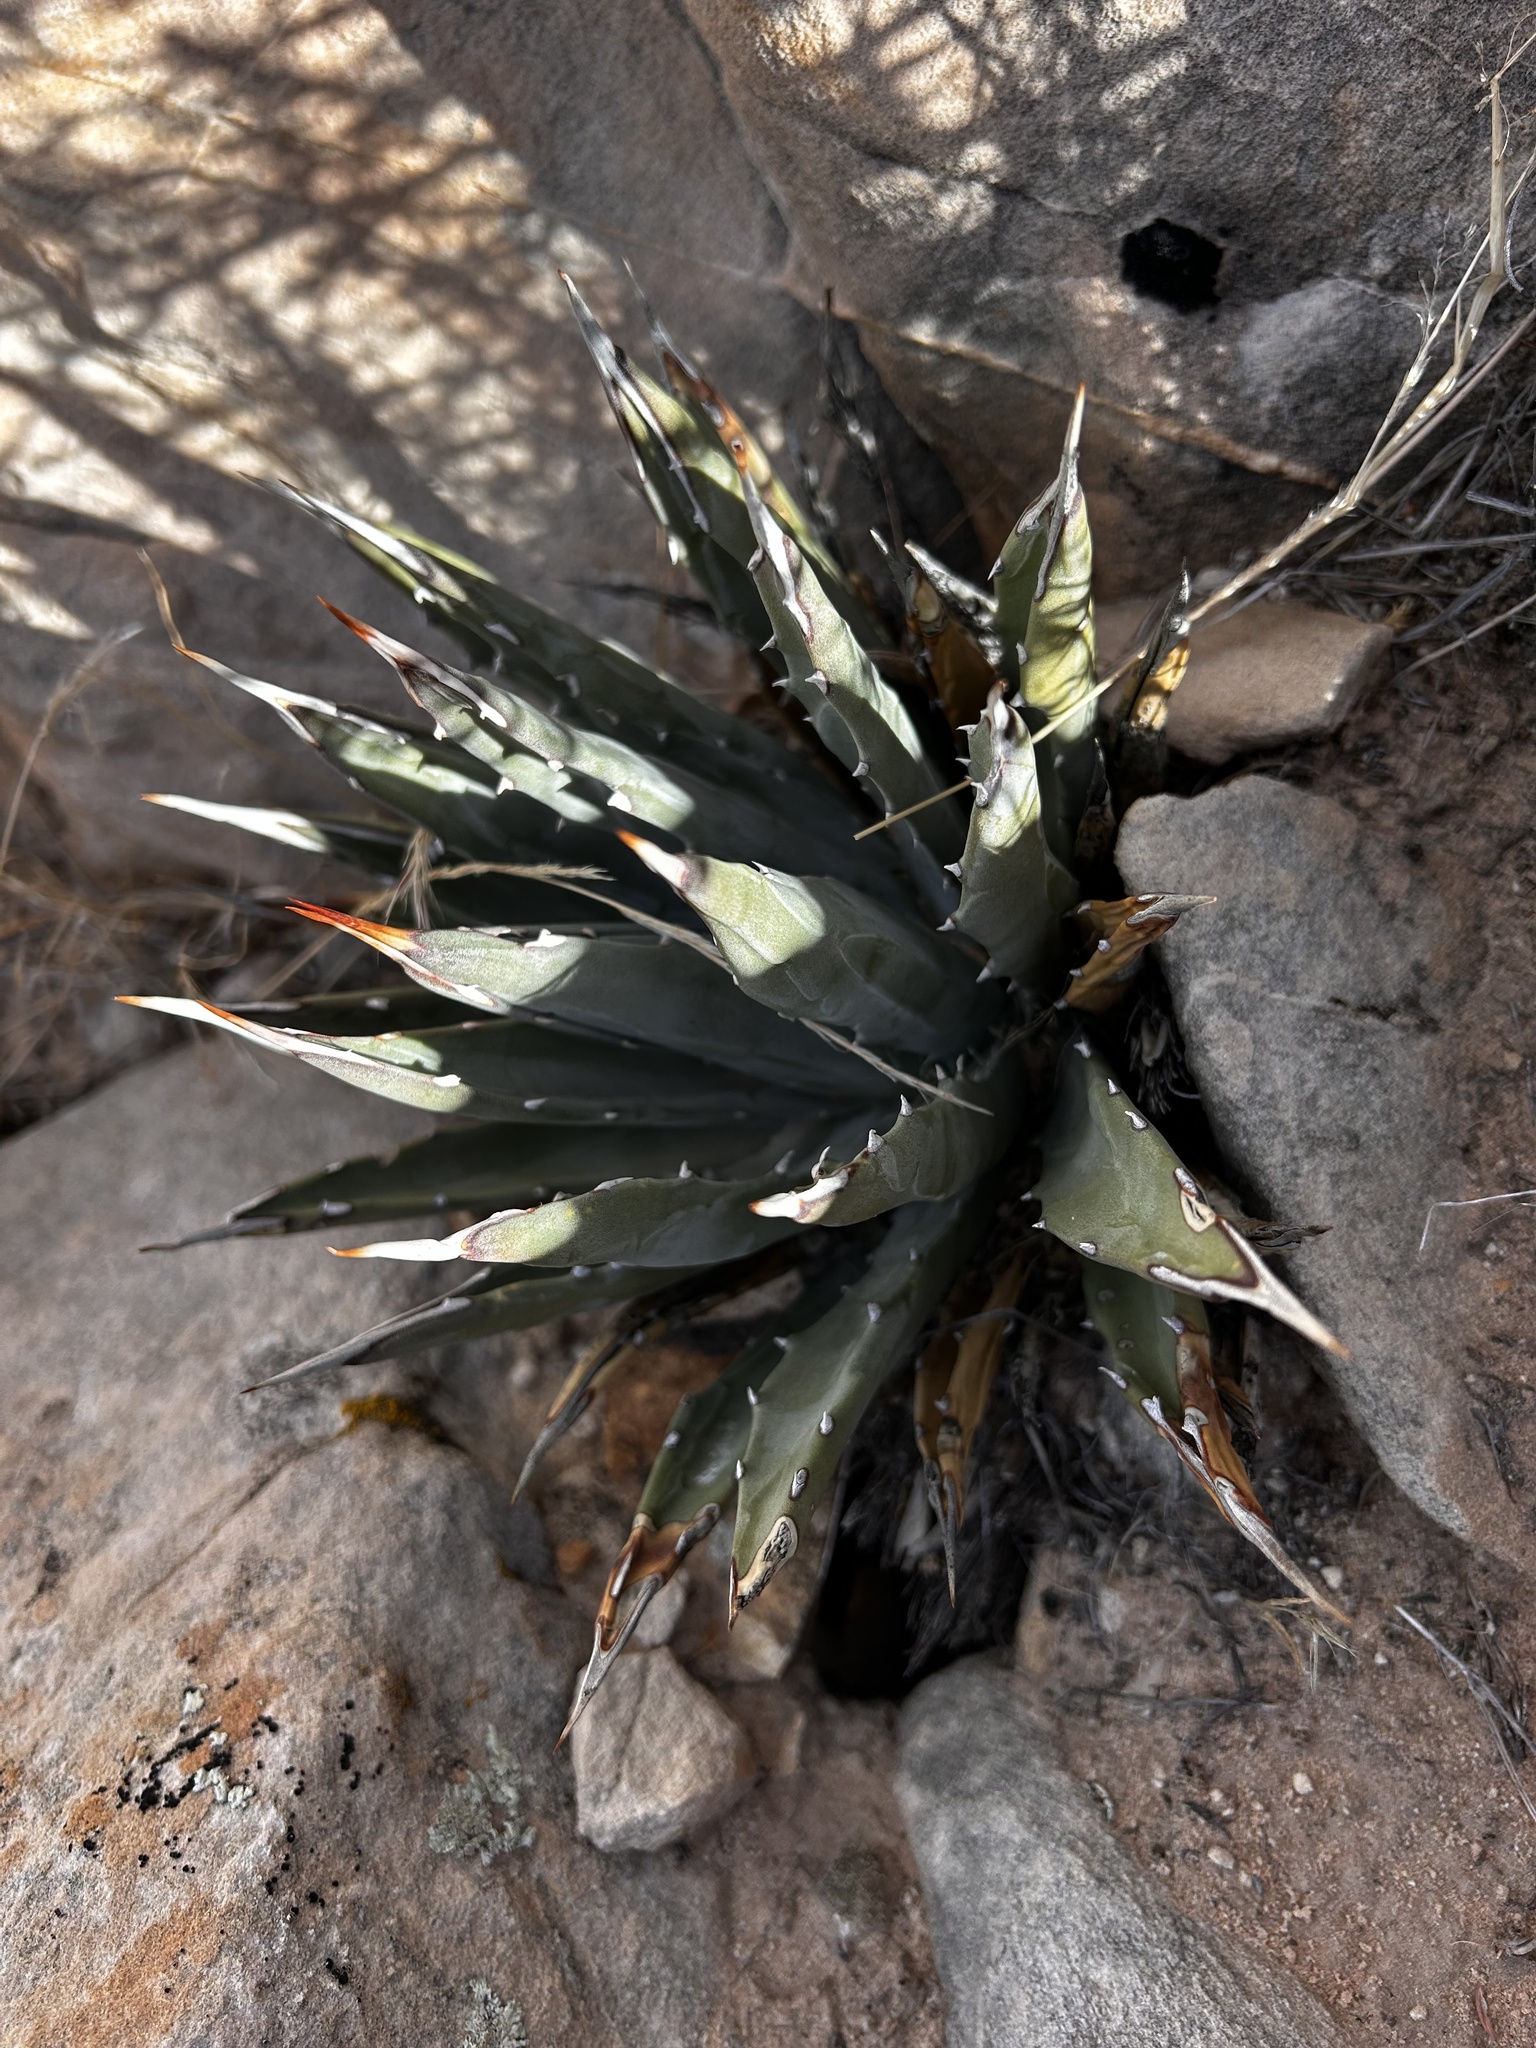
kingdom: Plantae
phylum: Tracheophyta
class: Liliopsida
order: Asparagales
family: Asparagaceae
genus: Agave
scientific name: Agave utahensis
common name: Utah agave
